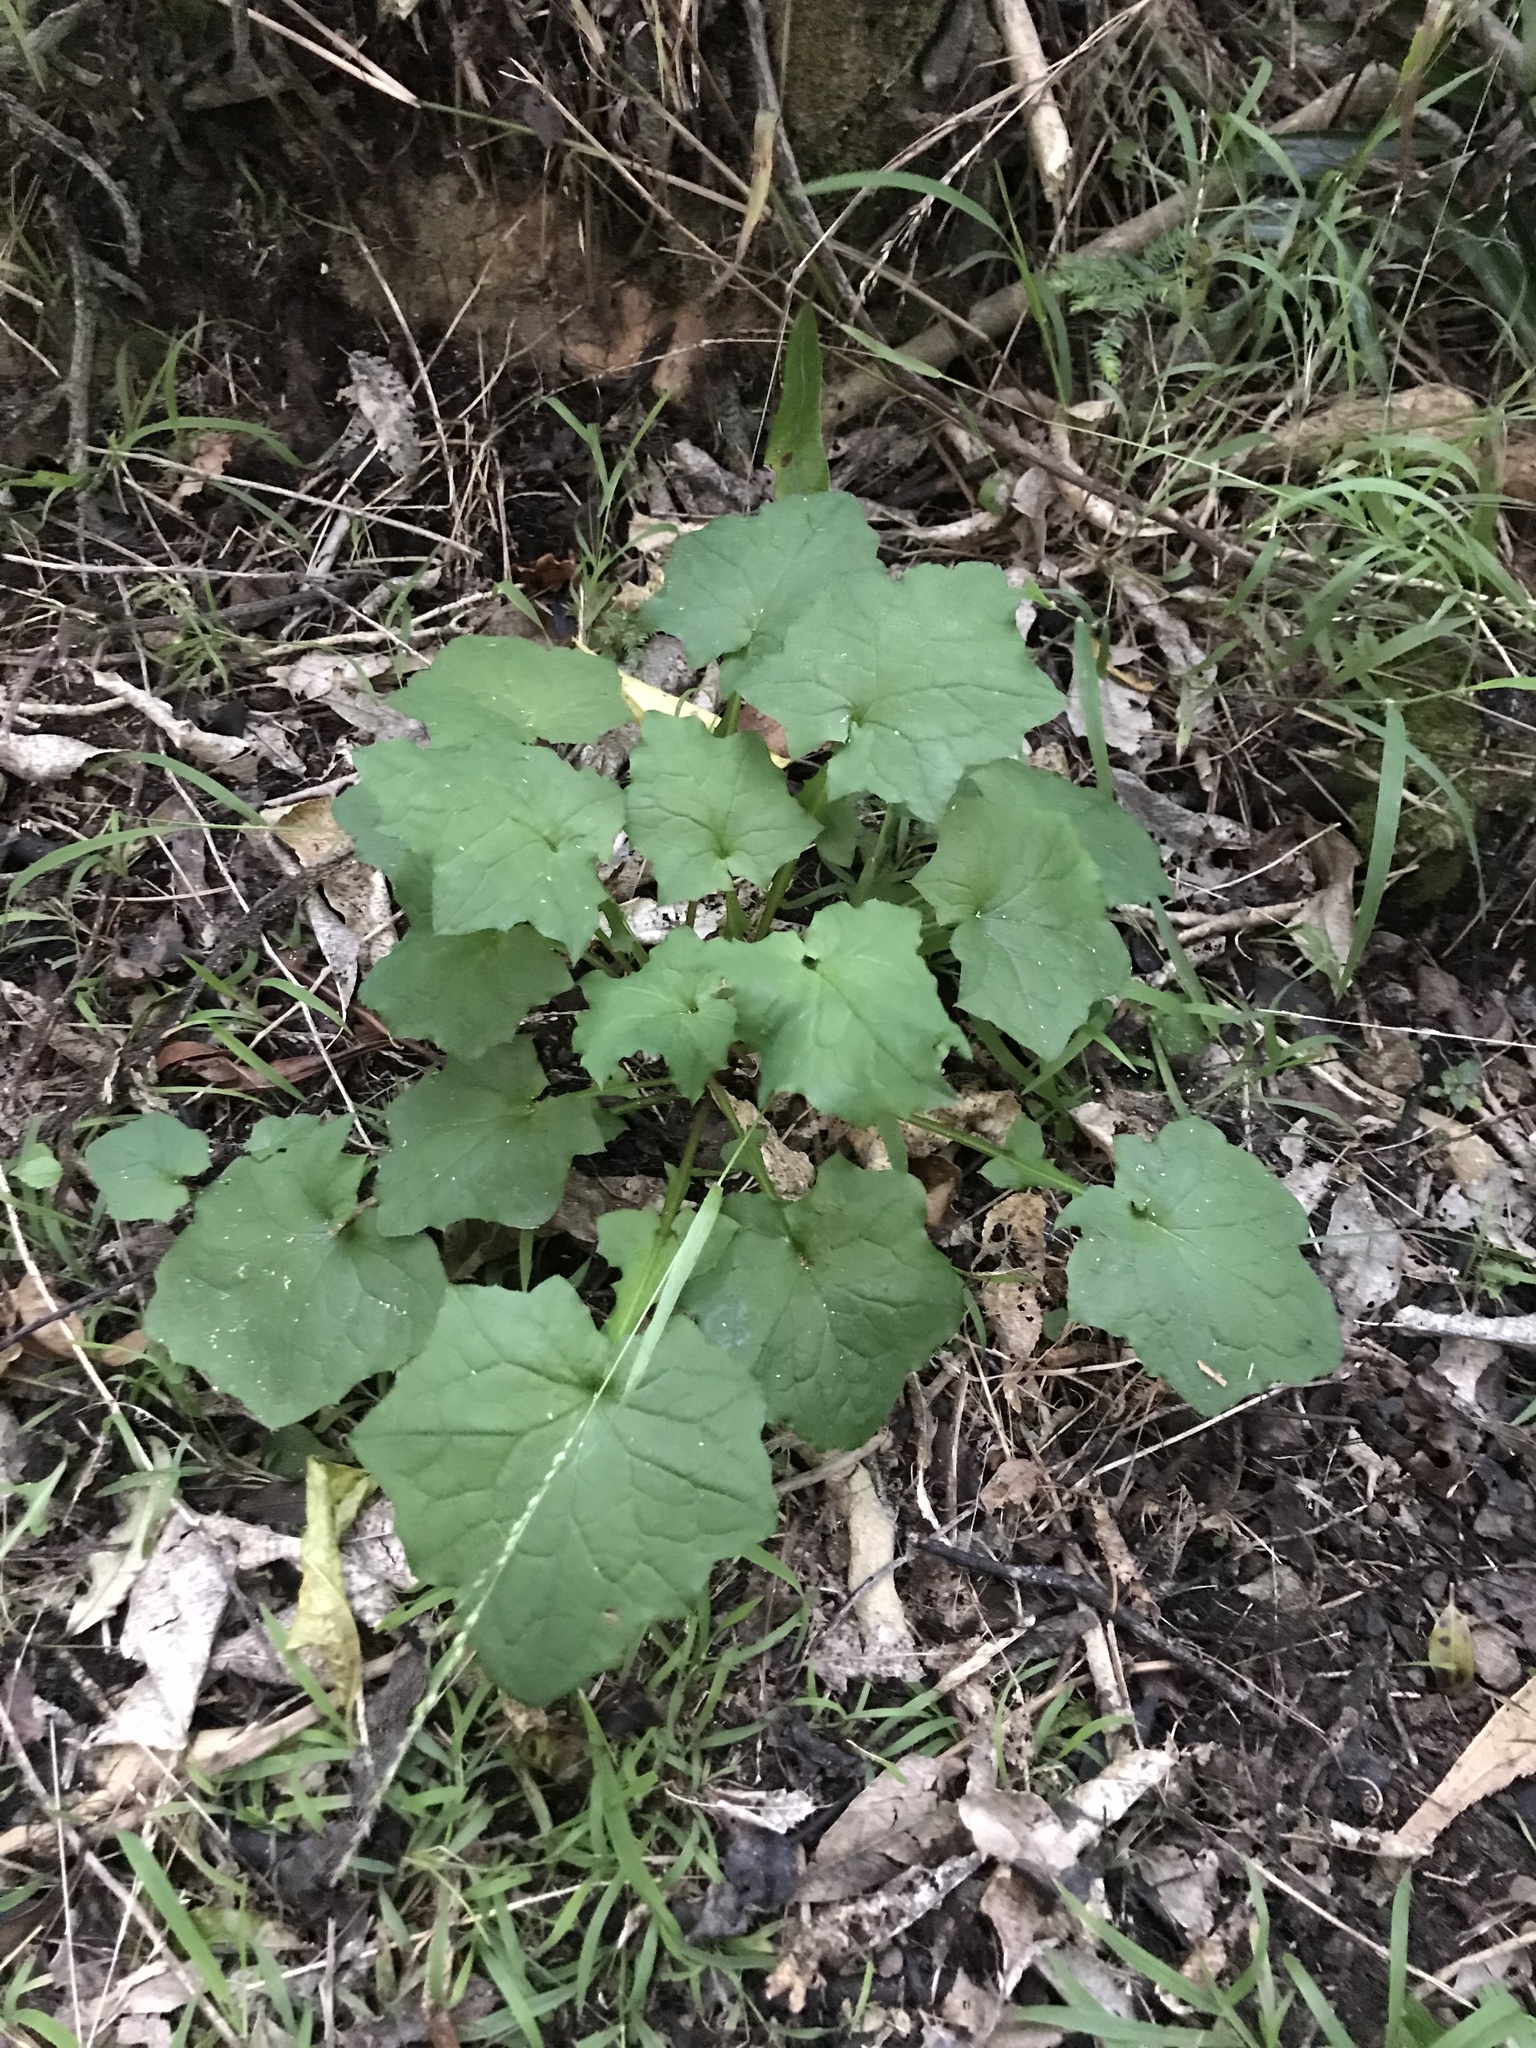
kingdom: Plantae
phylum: Tracheophyta
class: Magnoliopsida
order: Asterales
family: Asteraceae
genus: Mycelis
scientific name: Mycelis muralis
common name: Wall lettuce
